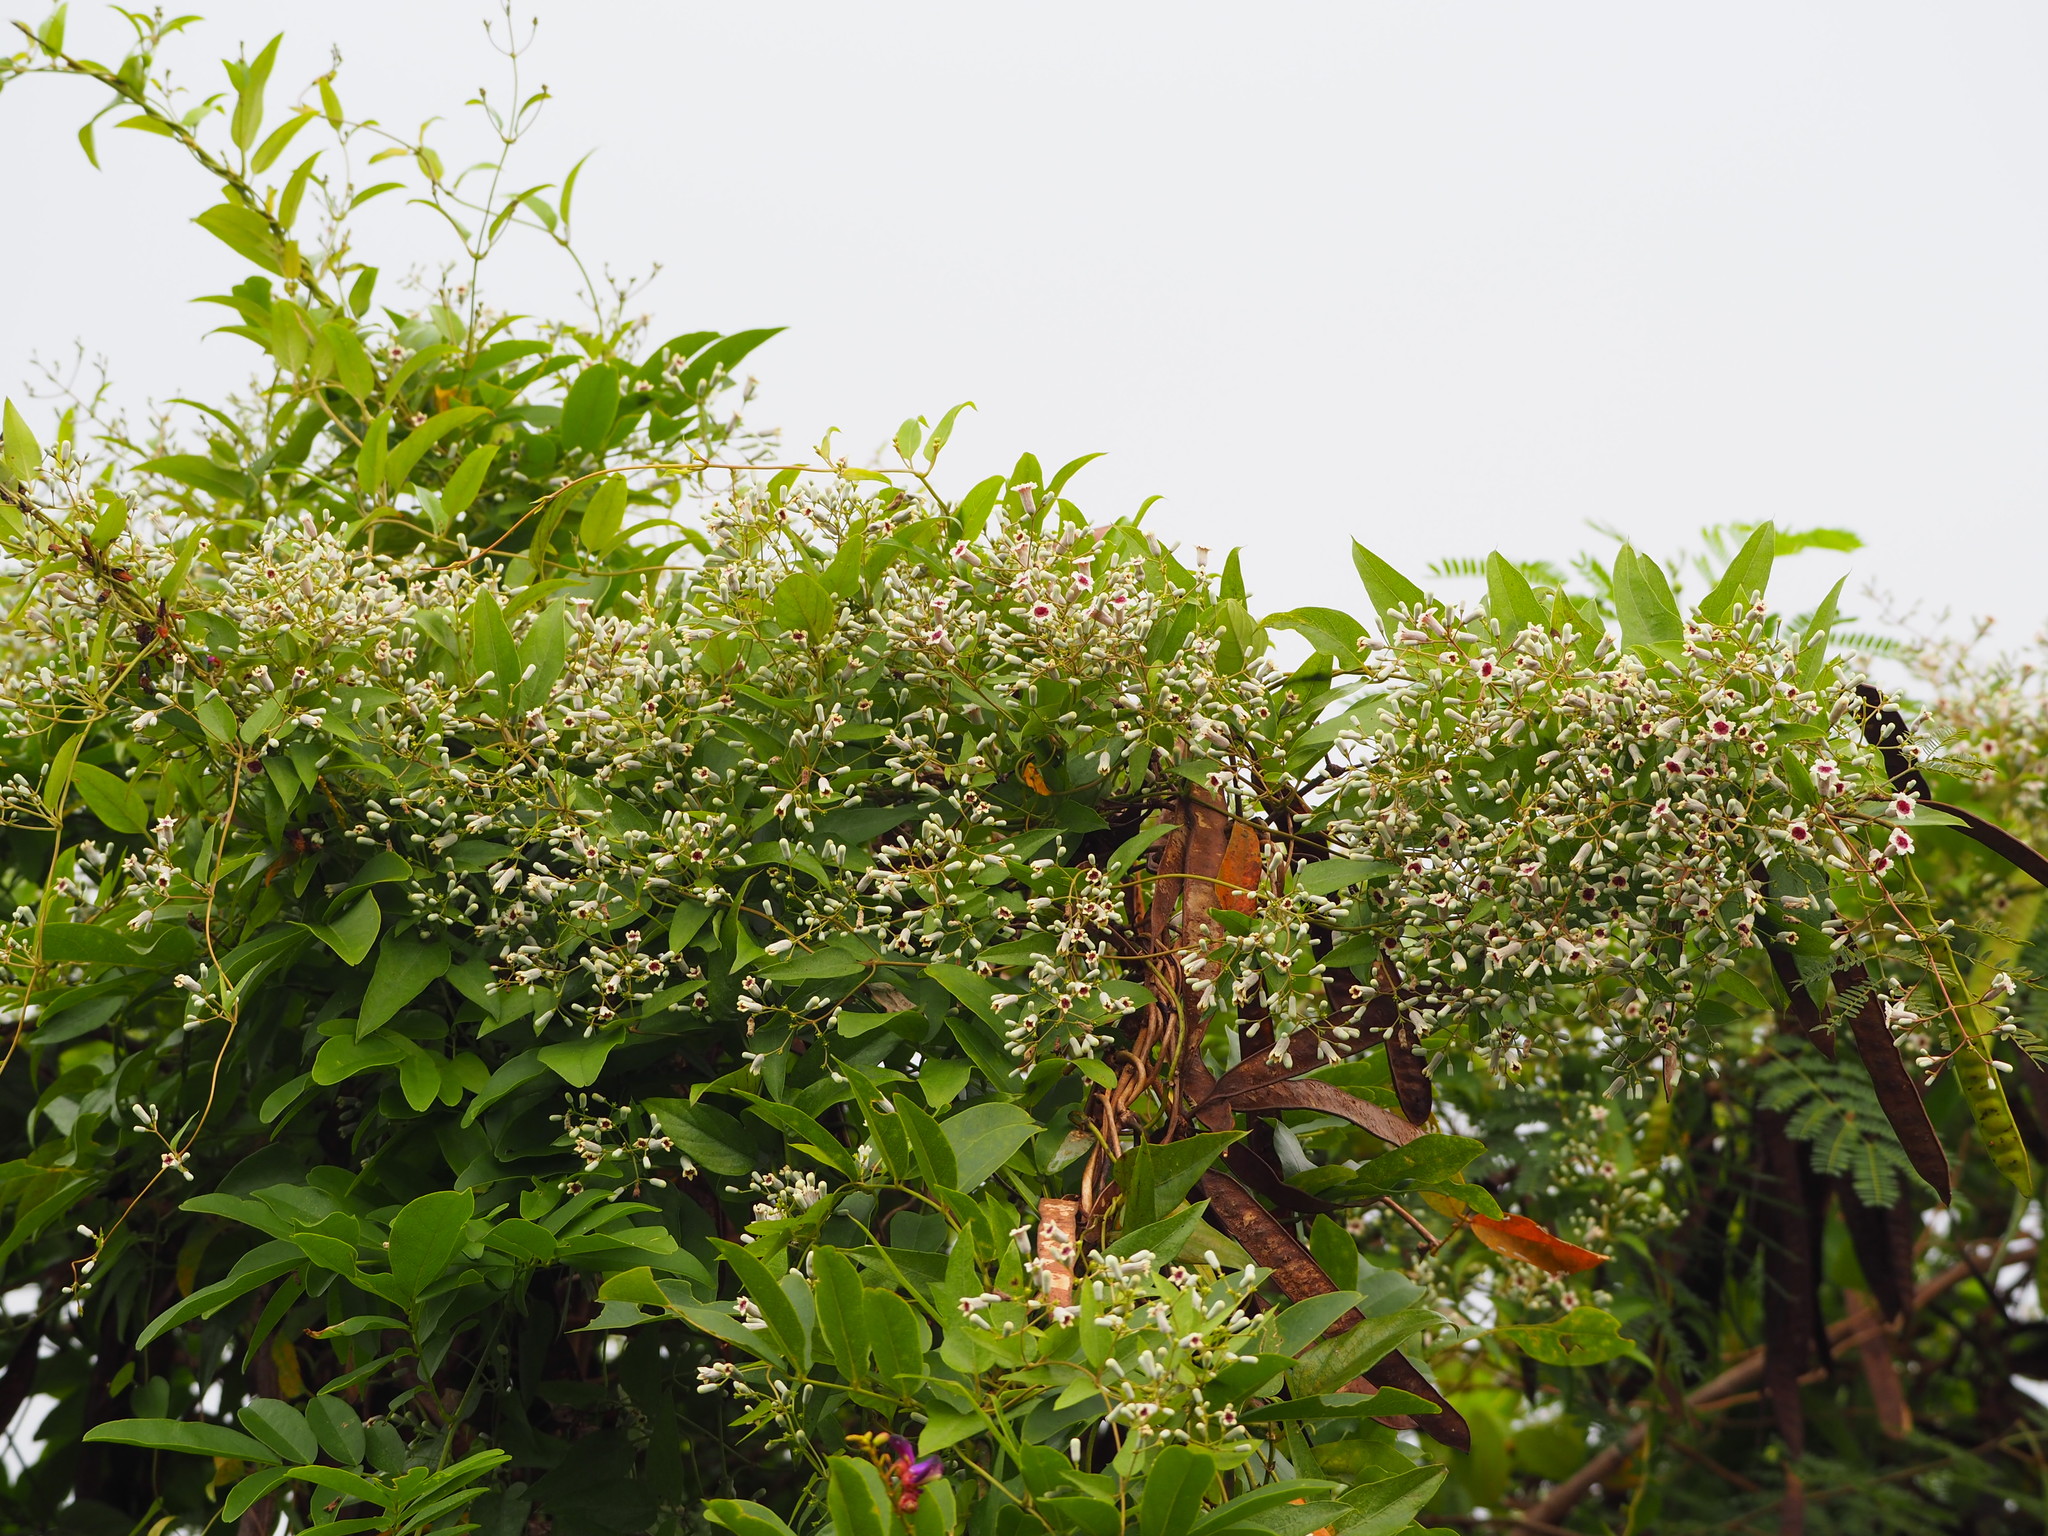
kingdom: Plantae
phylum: Tracheophyta
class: Magnoliopsida
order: Gentianales
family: Rubiaceae
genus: Paederia
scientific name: Paederia foetida
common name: Stinkvine
